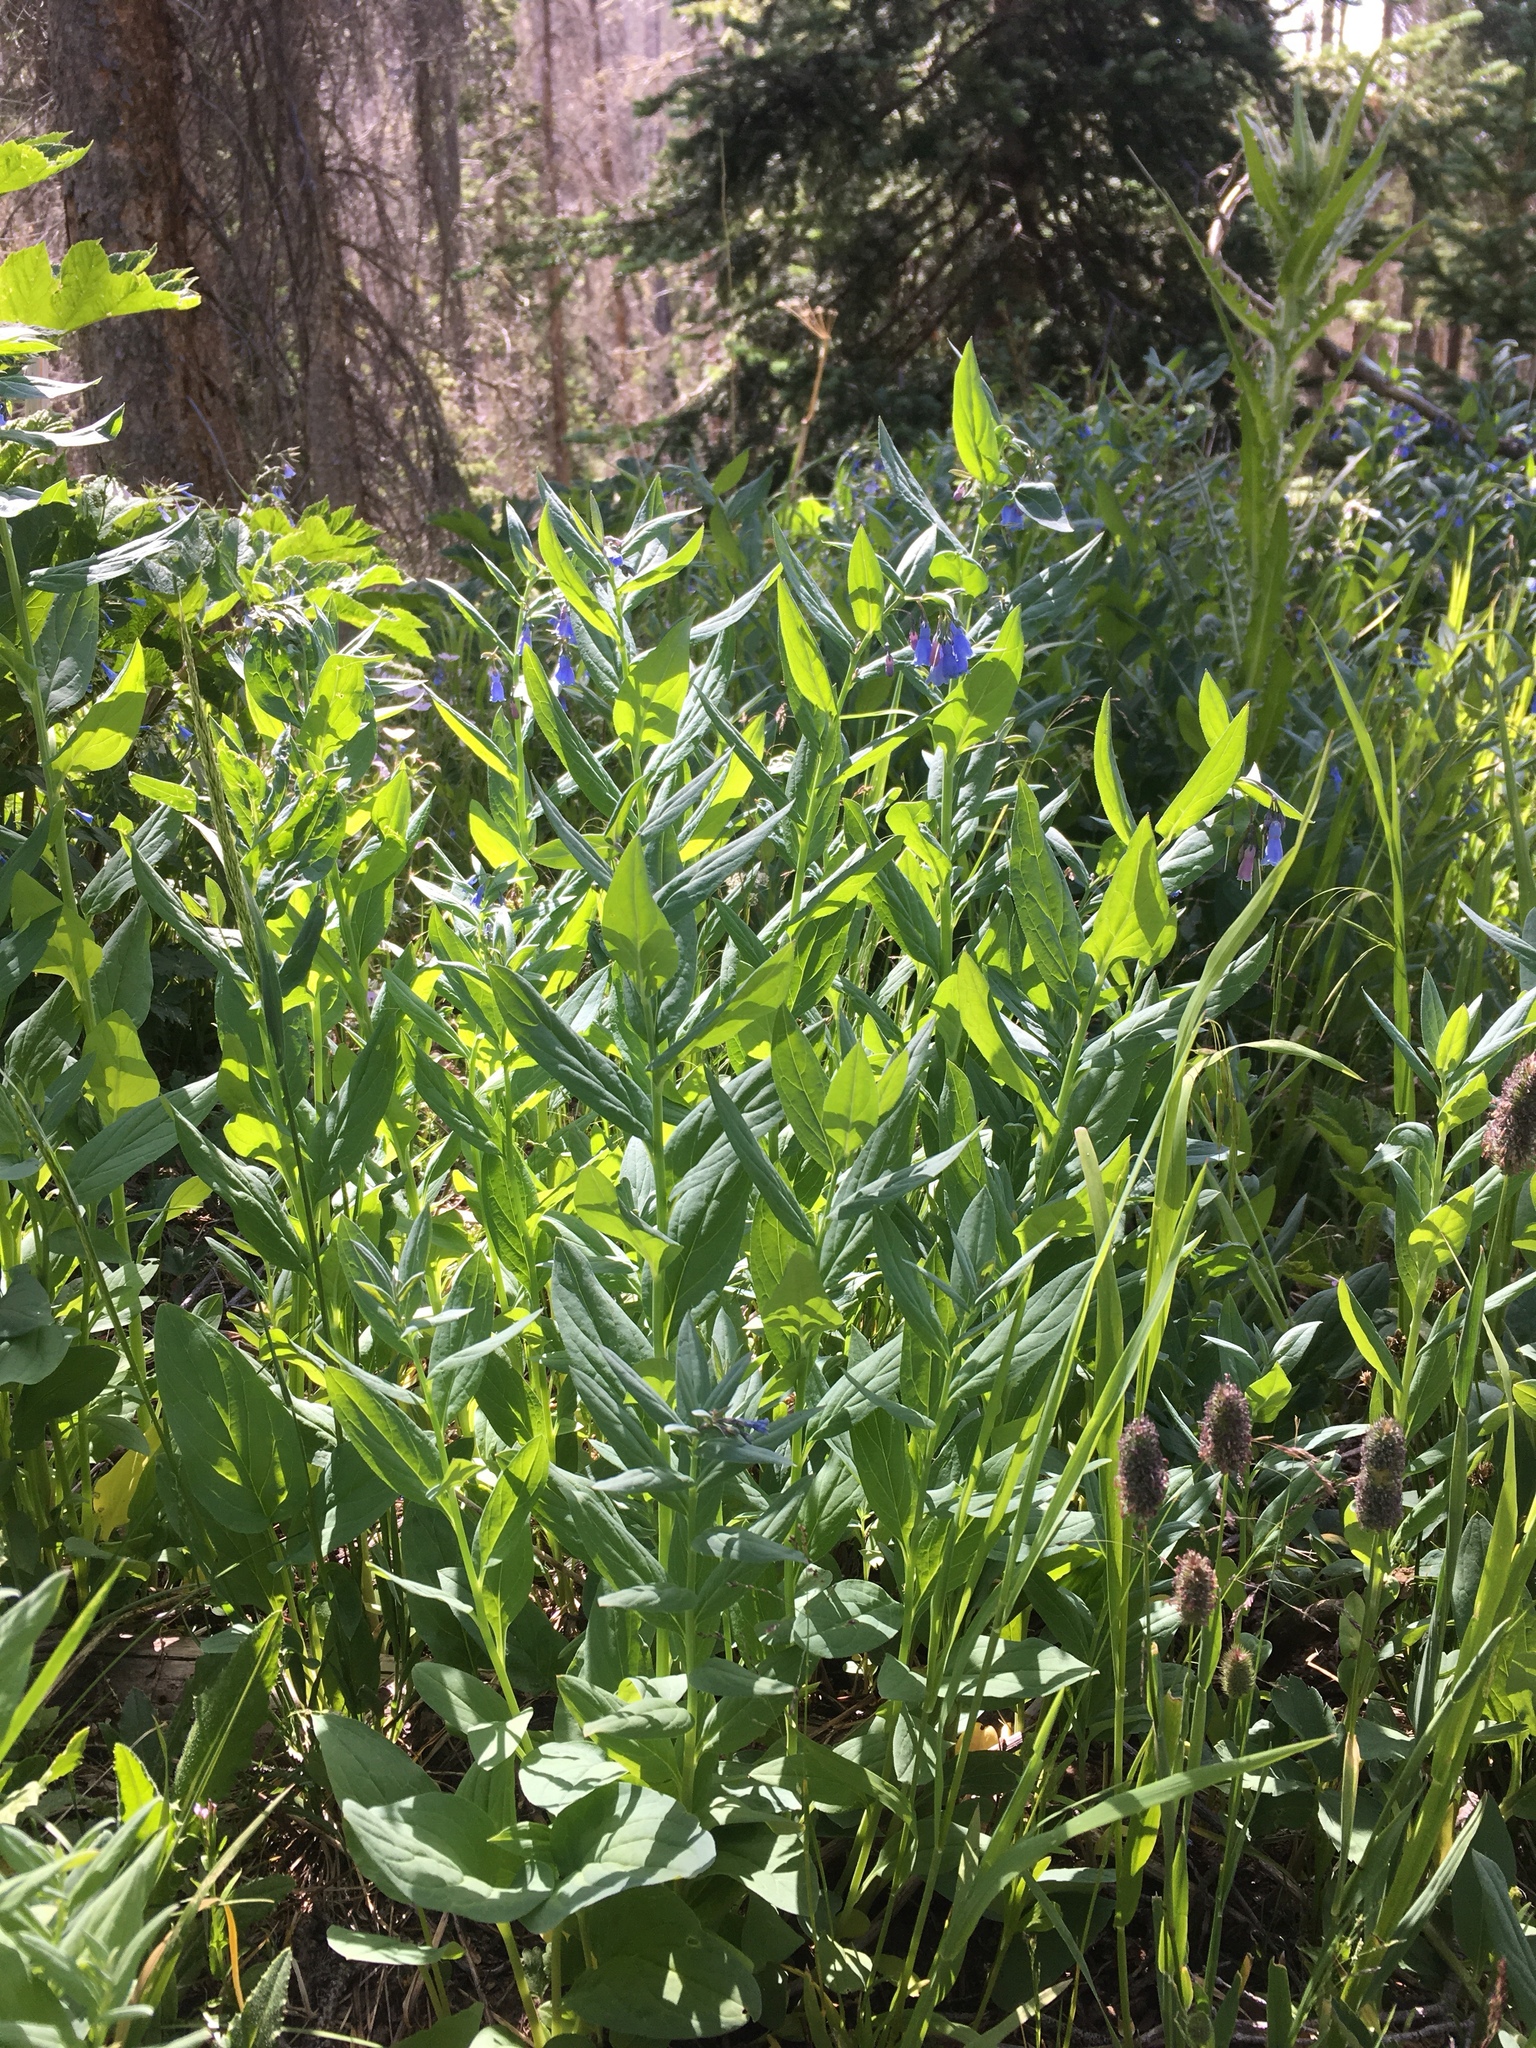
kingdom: Plantae
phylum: Tracheophyta
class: Magnoliopsida
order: Boraginales
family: Boraginaceae
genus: Mertensia
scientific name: Mertensia ciliata
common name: Tall chiming-bells
